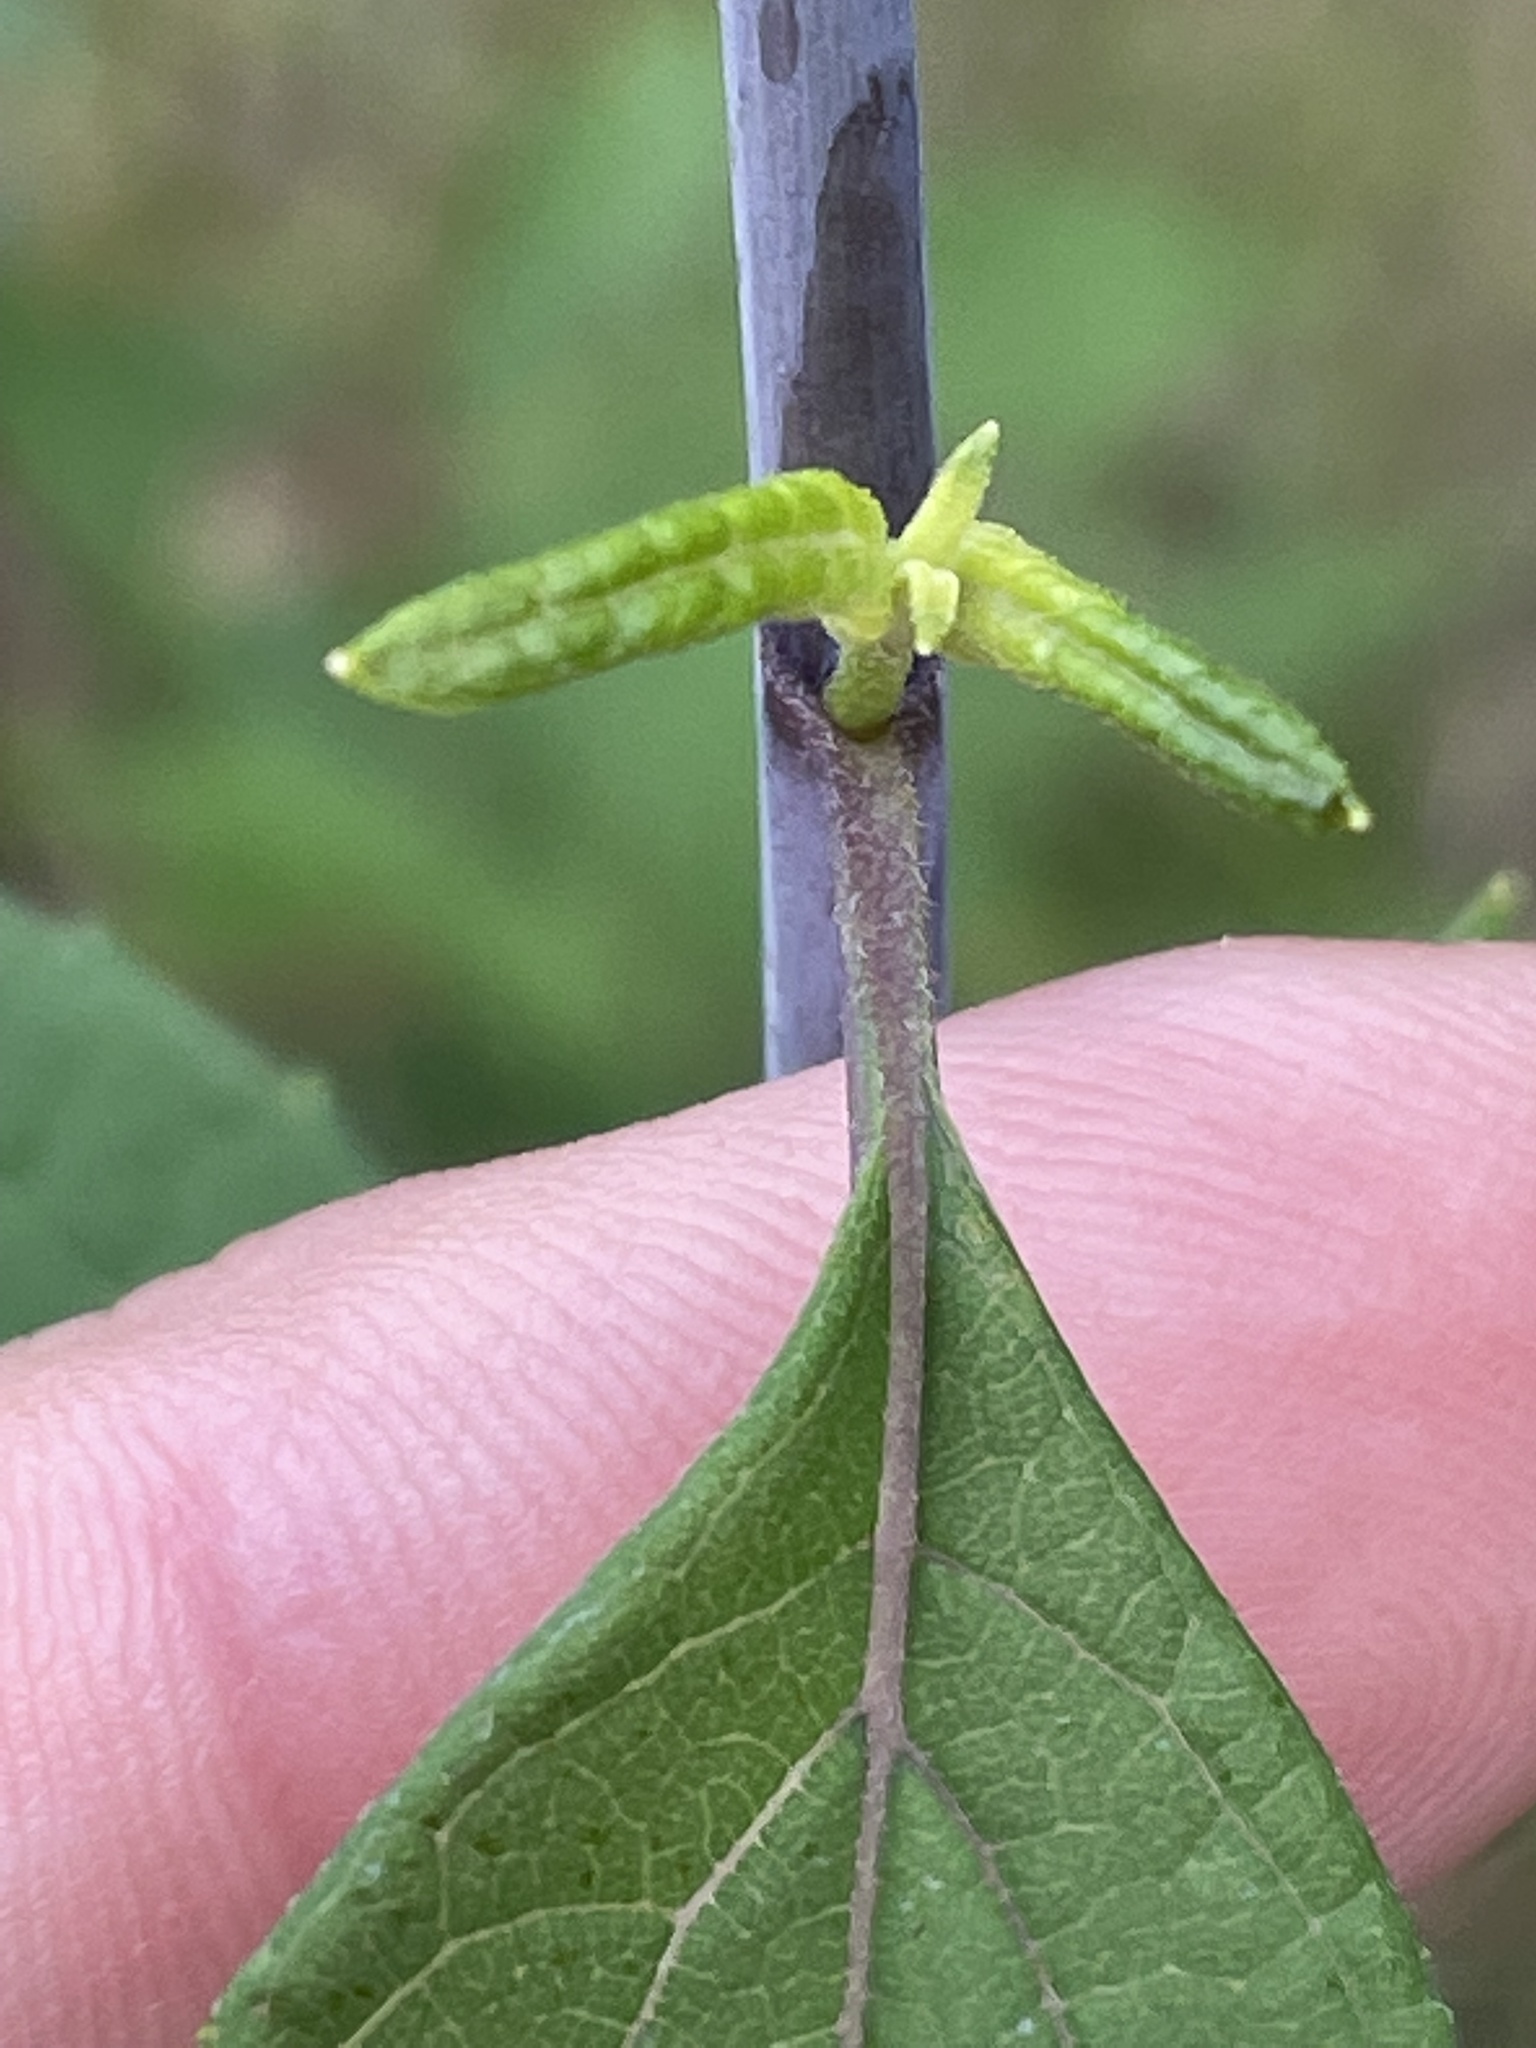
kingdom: Plantae
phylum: Tracheophyta
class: Magnoliopsida
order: Asterales
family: Asteraceae
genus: Helianthus
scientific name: Helianthus microcephalus
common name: Woodland sunflower
